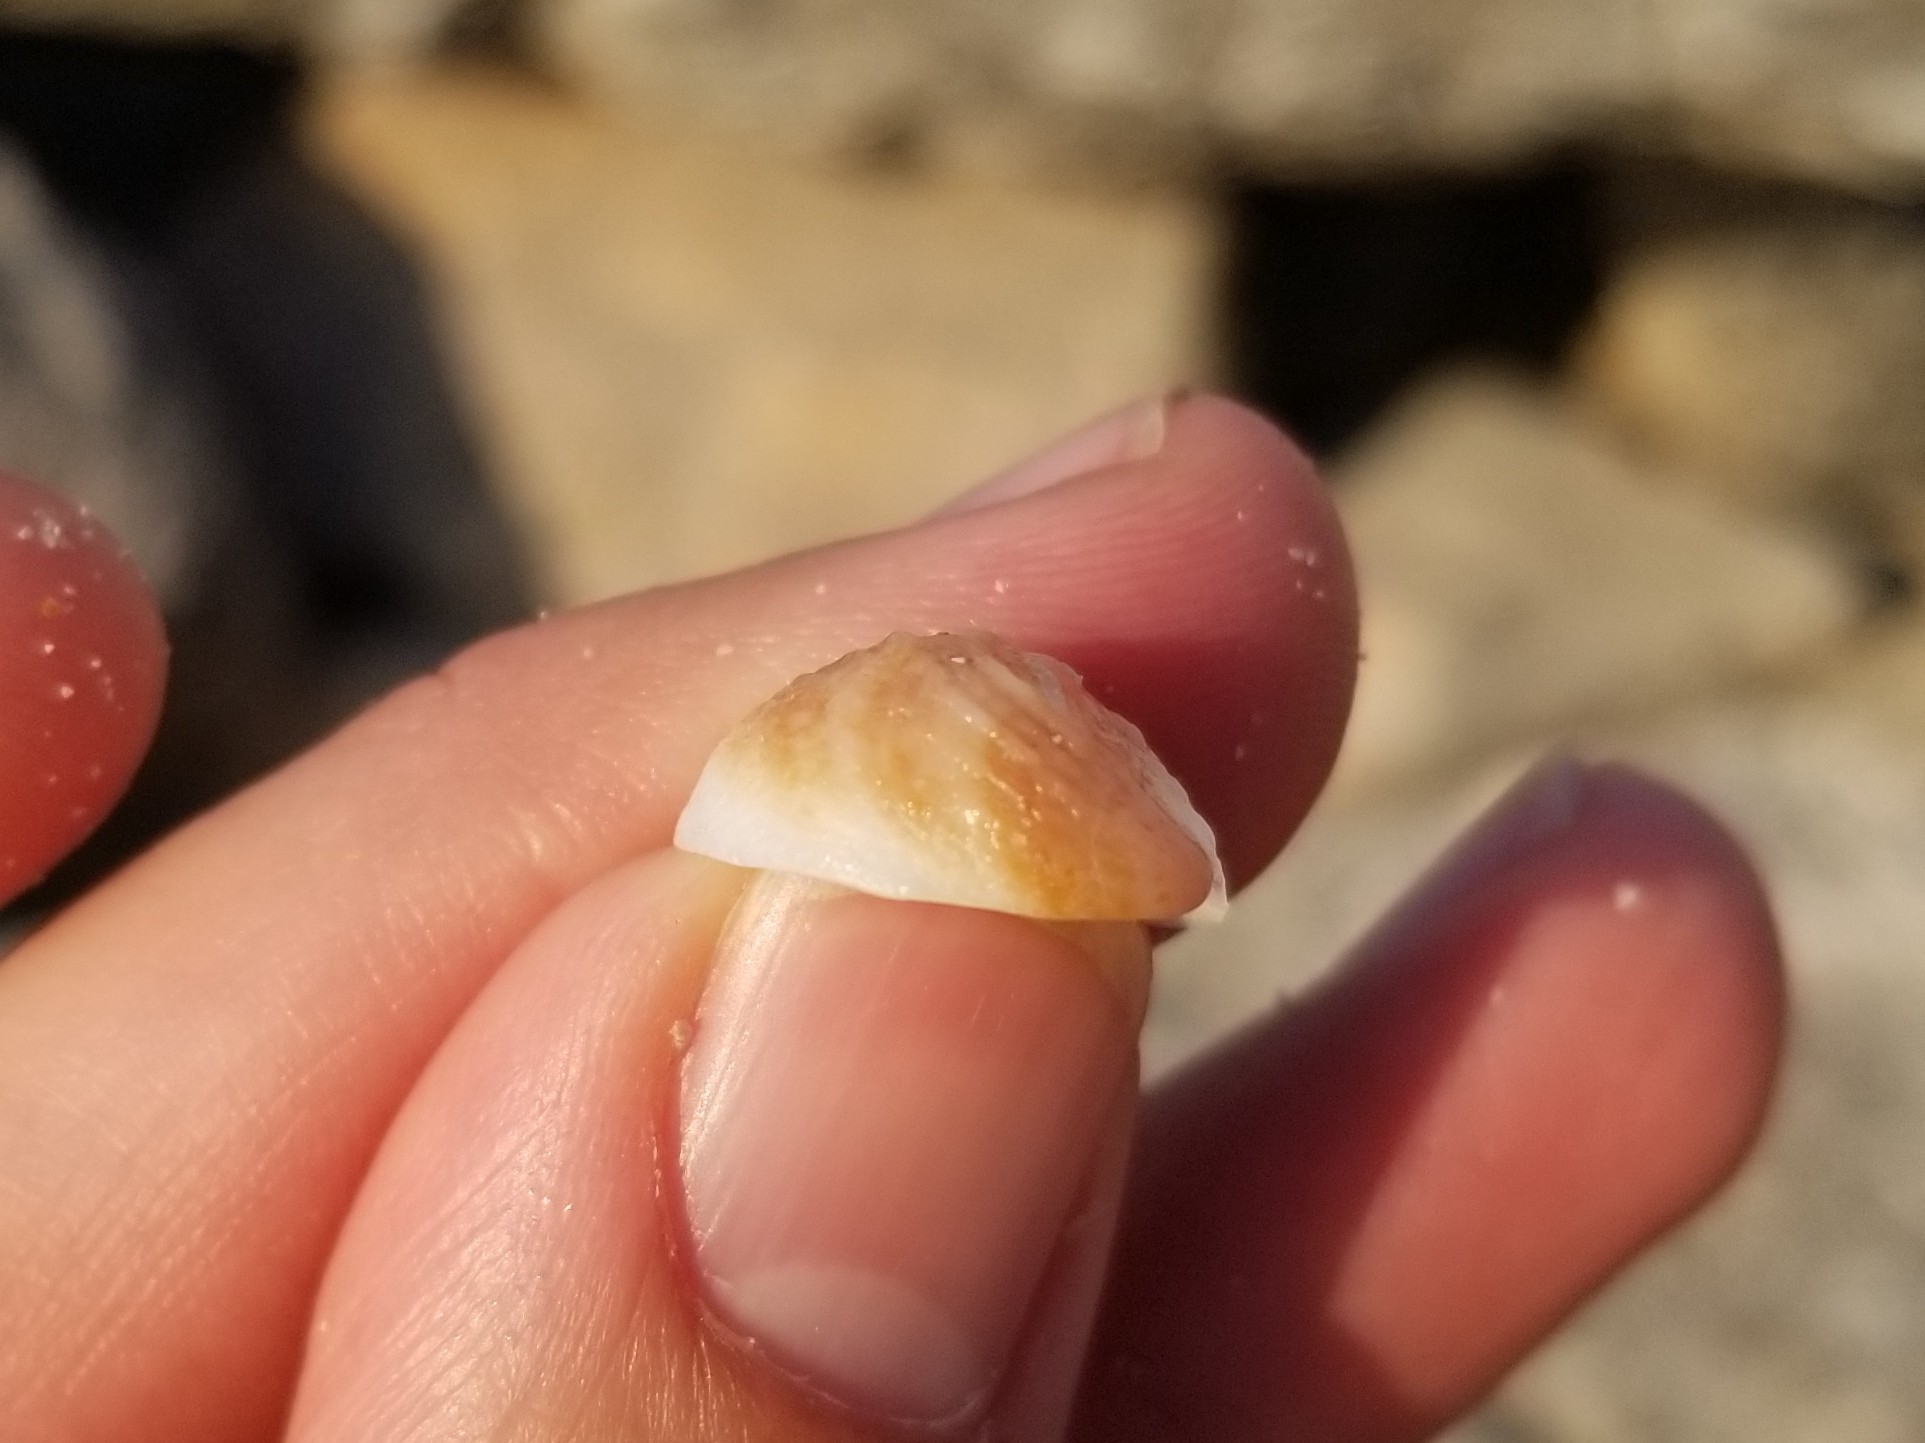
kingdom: Animalia
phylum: Mollusca
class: Gastropoda
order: Littorinimorpha
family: Calyptraeidae
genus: Bostrycapulus
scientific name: Bostrycapulus aculeatus
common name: Spiny slippersnail
